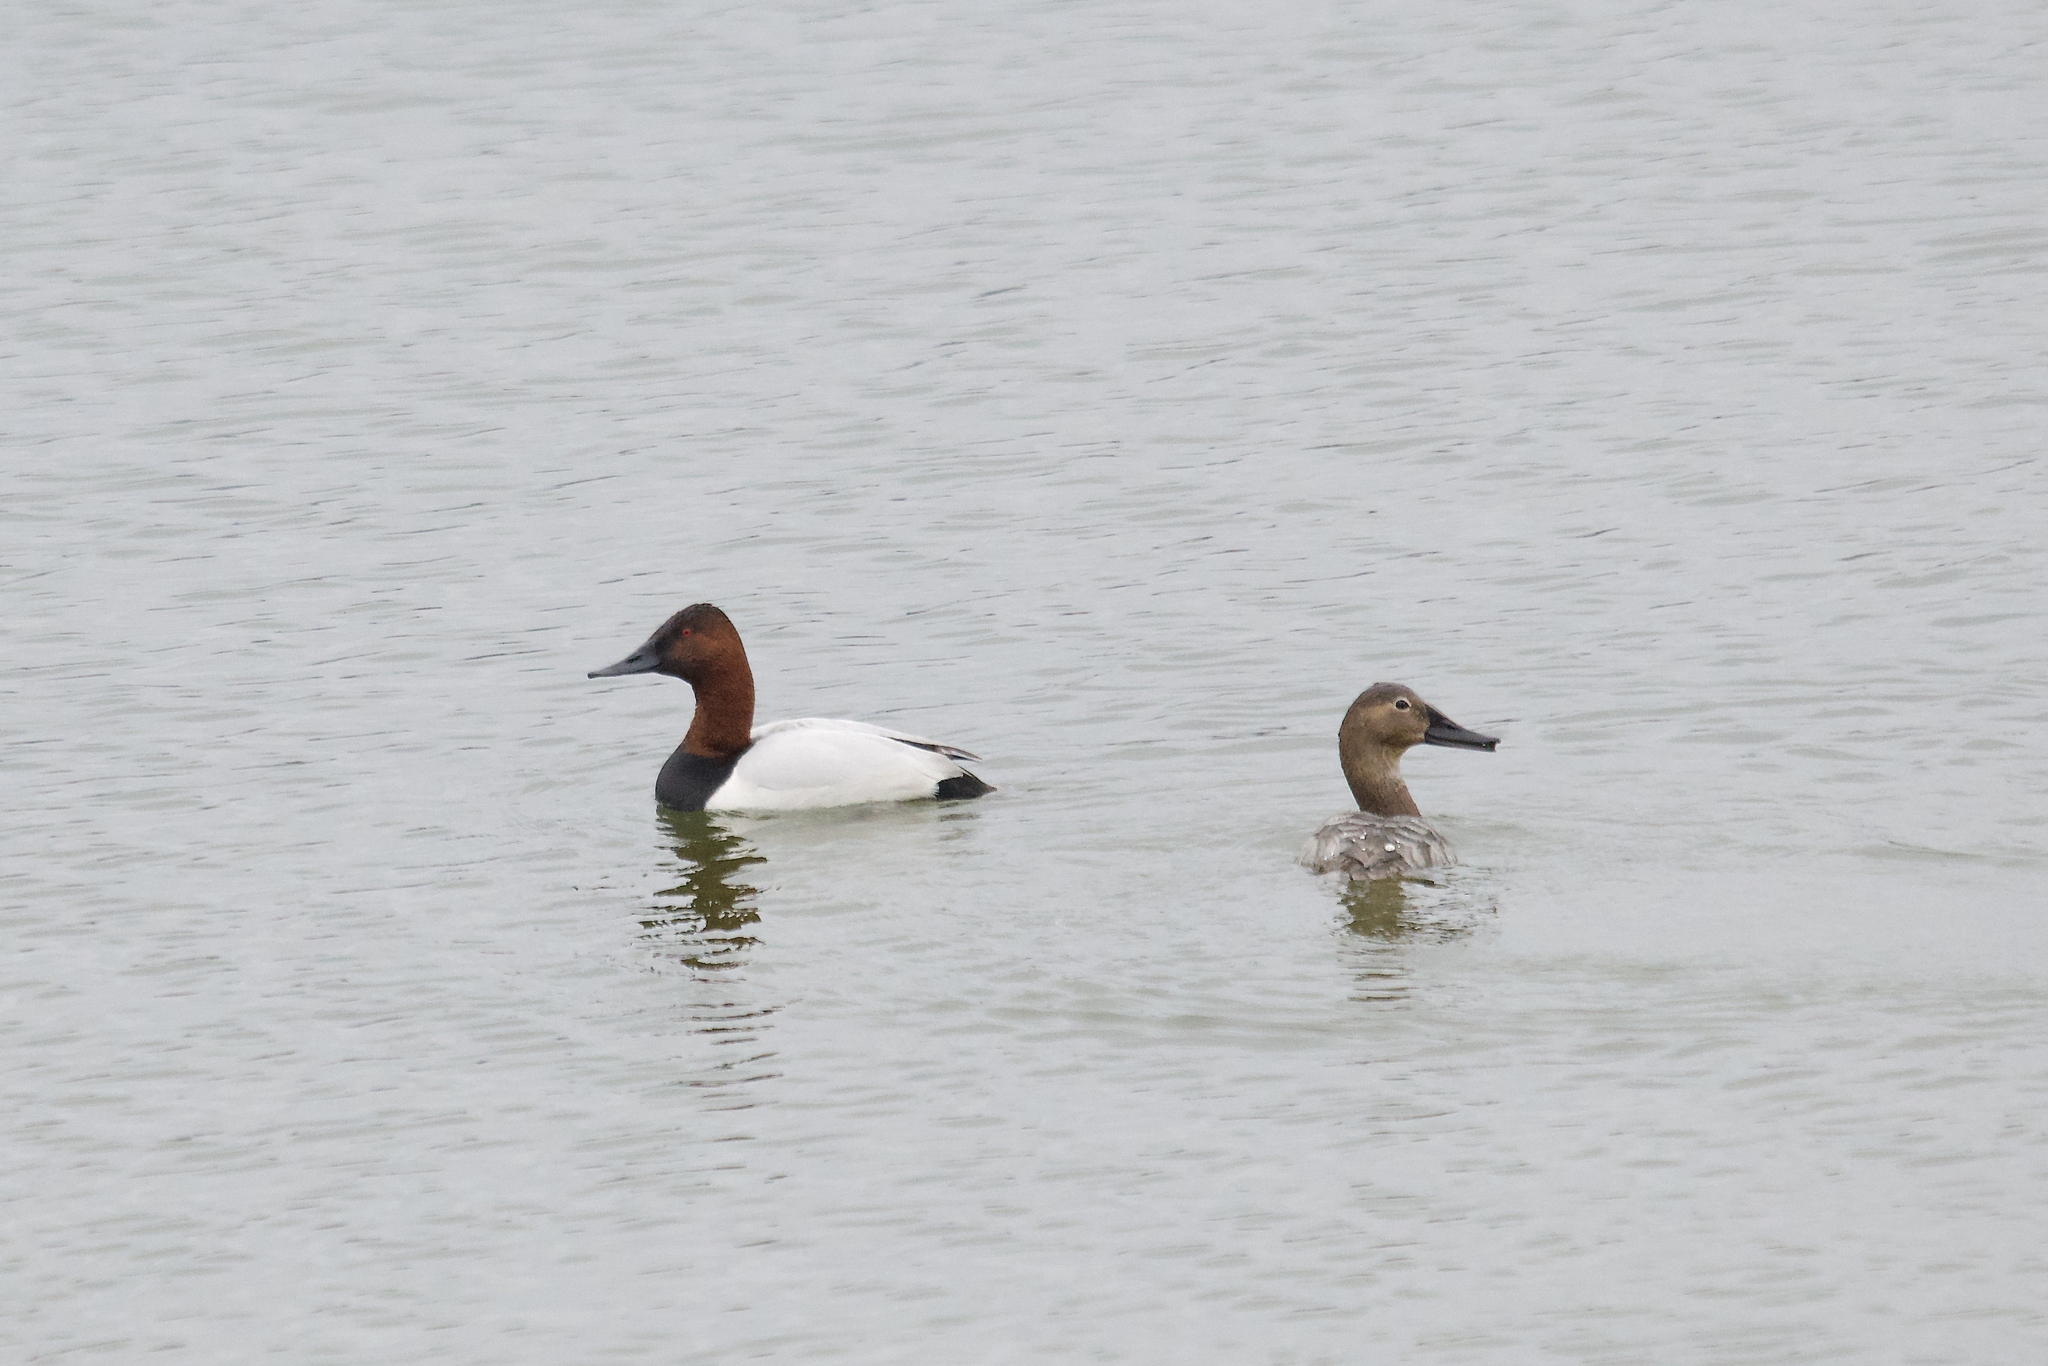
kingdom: Animalia
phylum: Chordata
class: Aves
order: Anseriformes
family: Anatidae
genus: Aythya
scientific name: Aythya valisineria
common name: Canvasback
